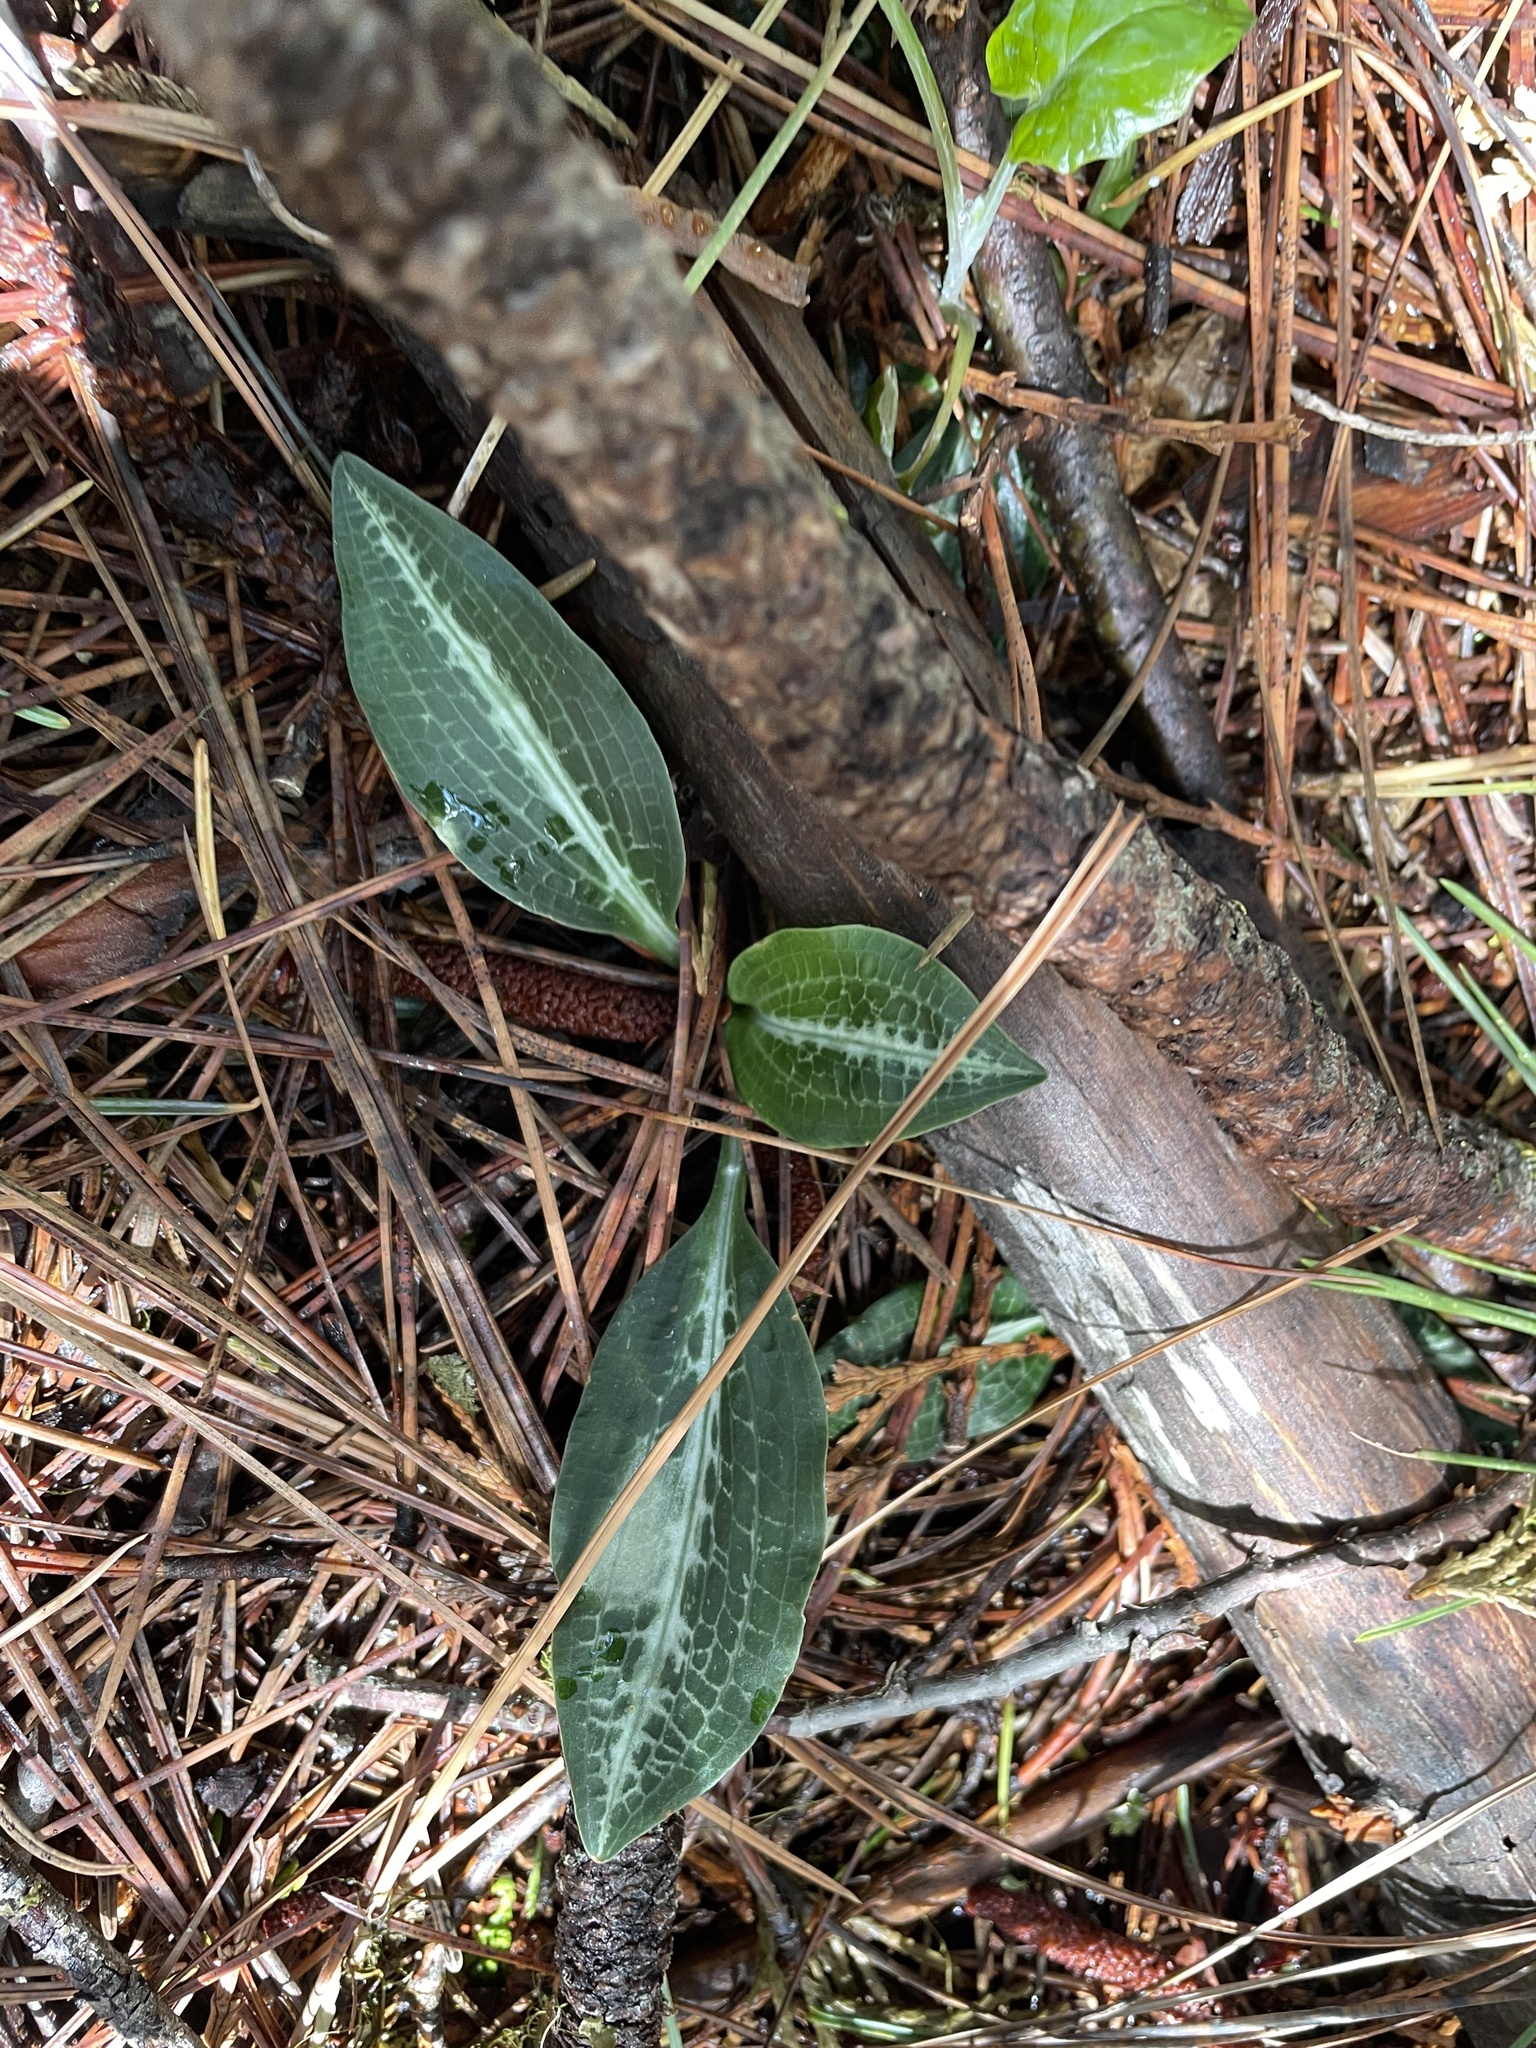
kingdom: Plantae
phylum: Tracheophyta
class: Liliopsida
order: Asparagales
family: Orchidaceae
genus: Goodyera
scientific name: Goodyera oblongifolia
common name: Giant rattlesnake-plantain
